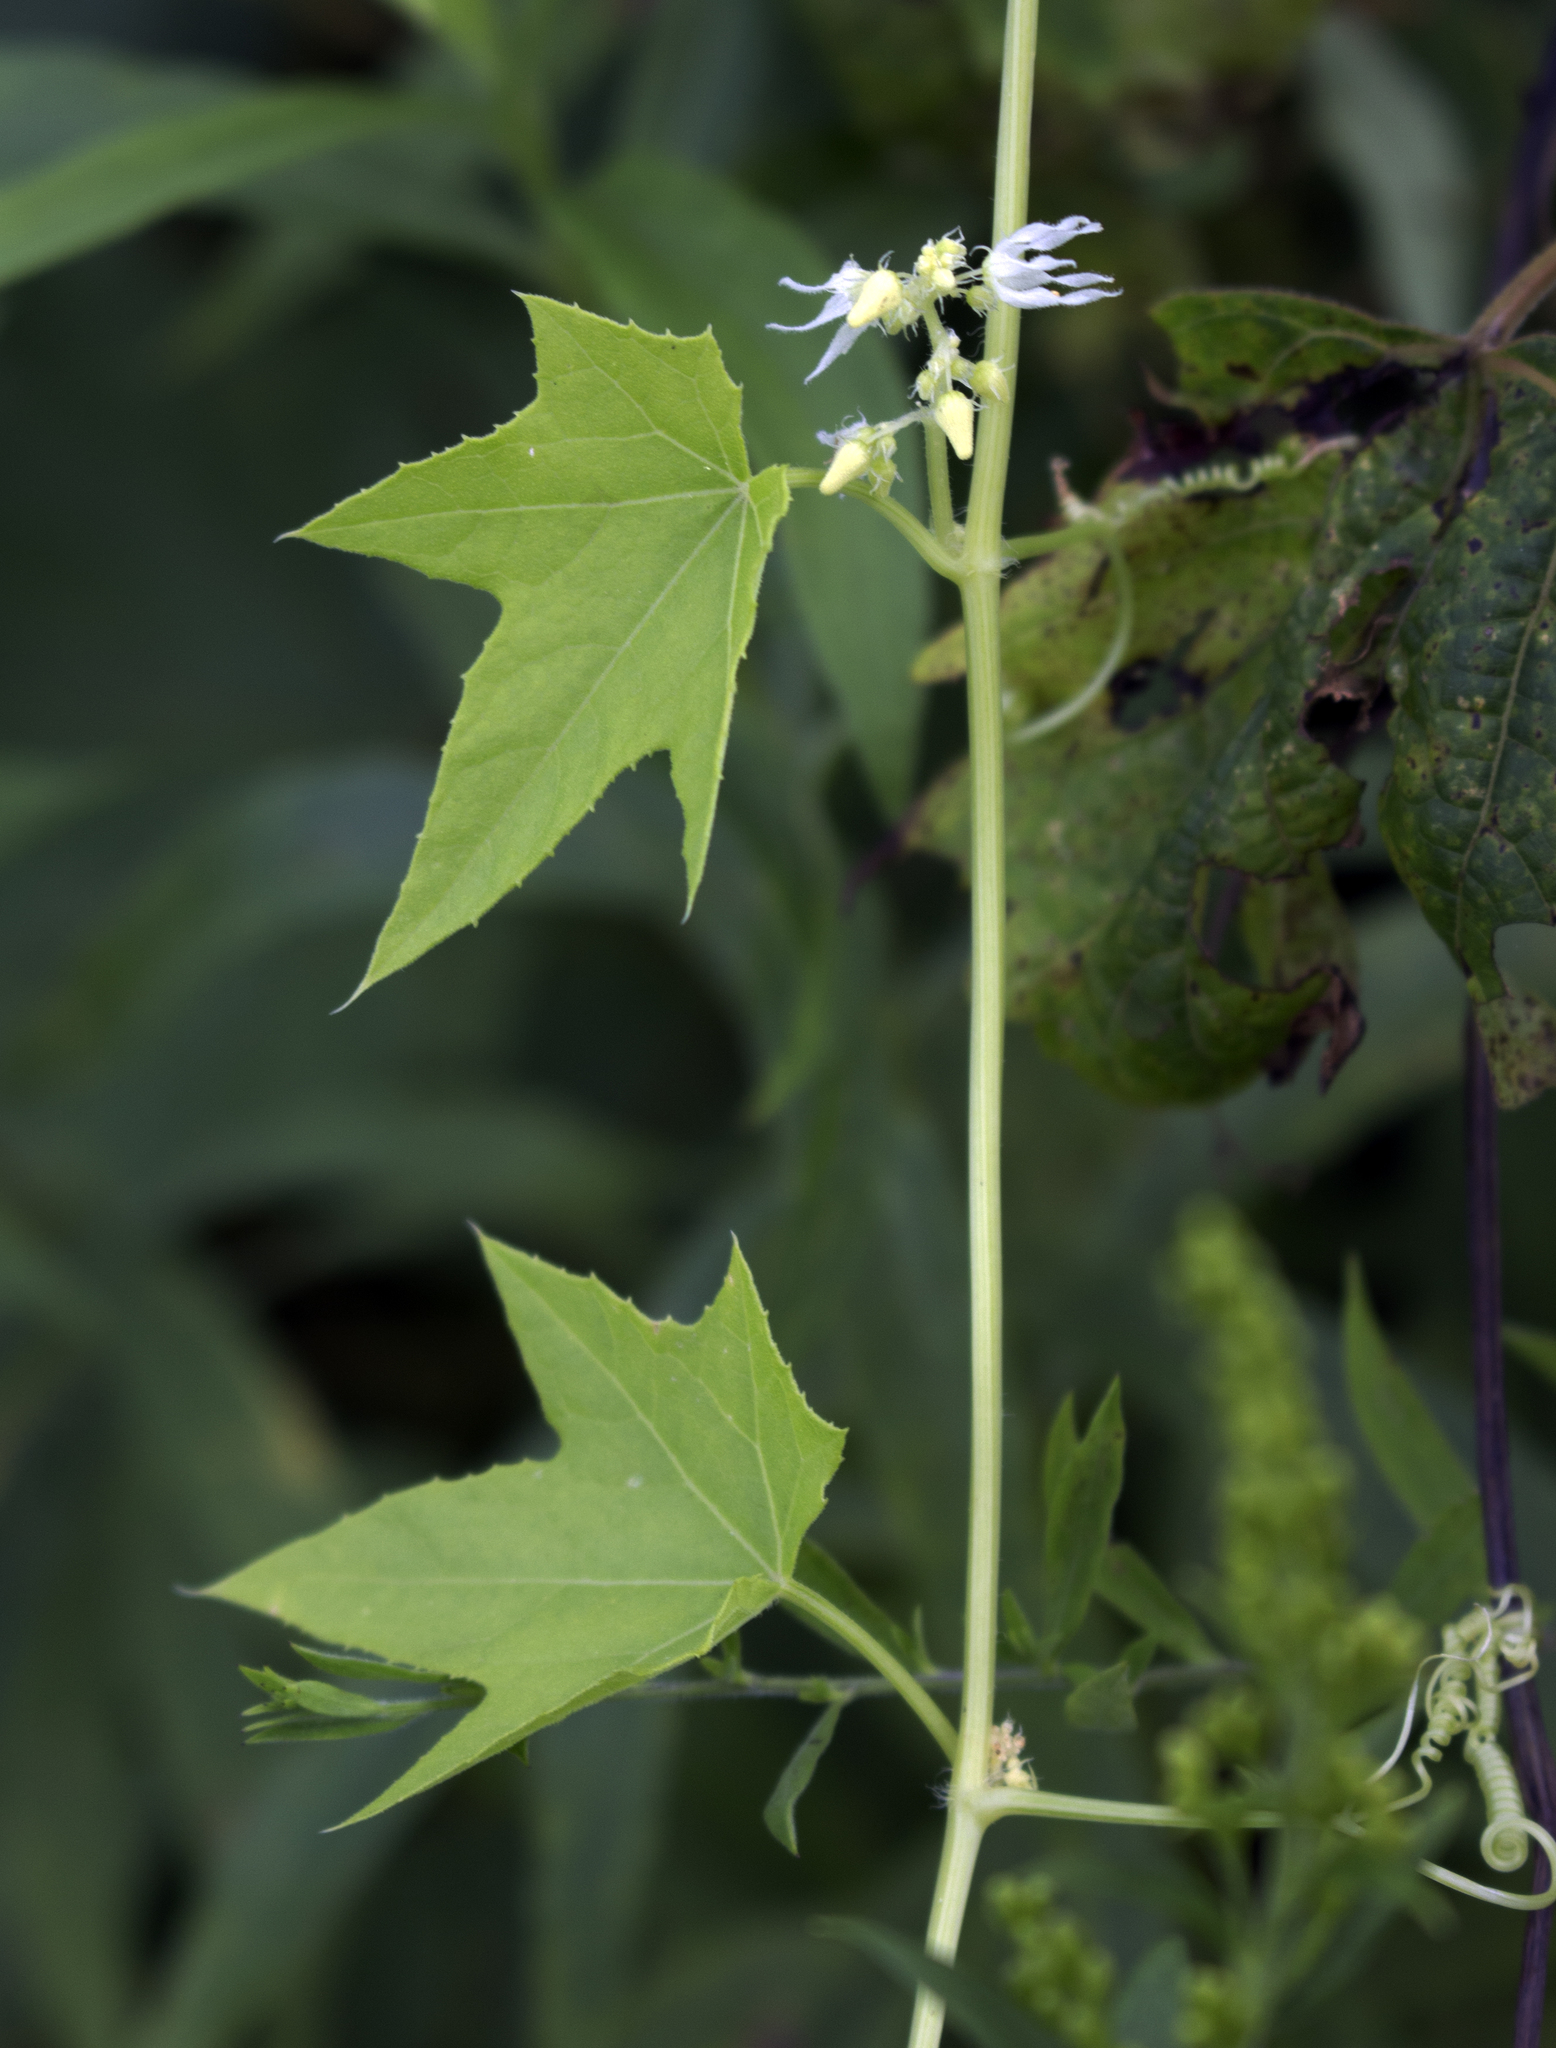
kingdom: Plantae
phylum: Tracheophyta
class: Magnoliopsida
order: Cucurbitales
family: Cucurbitaceae
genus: Echinocystis
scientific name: Echinocystis lobata
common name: Wild cucumber
